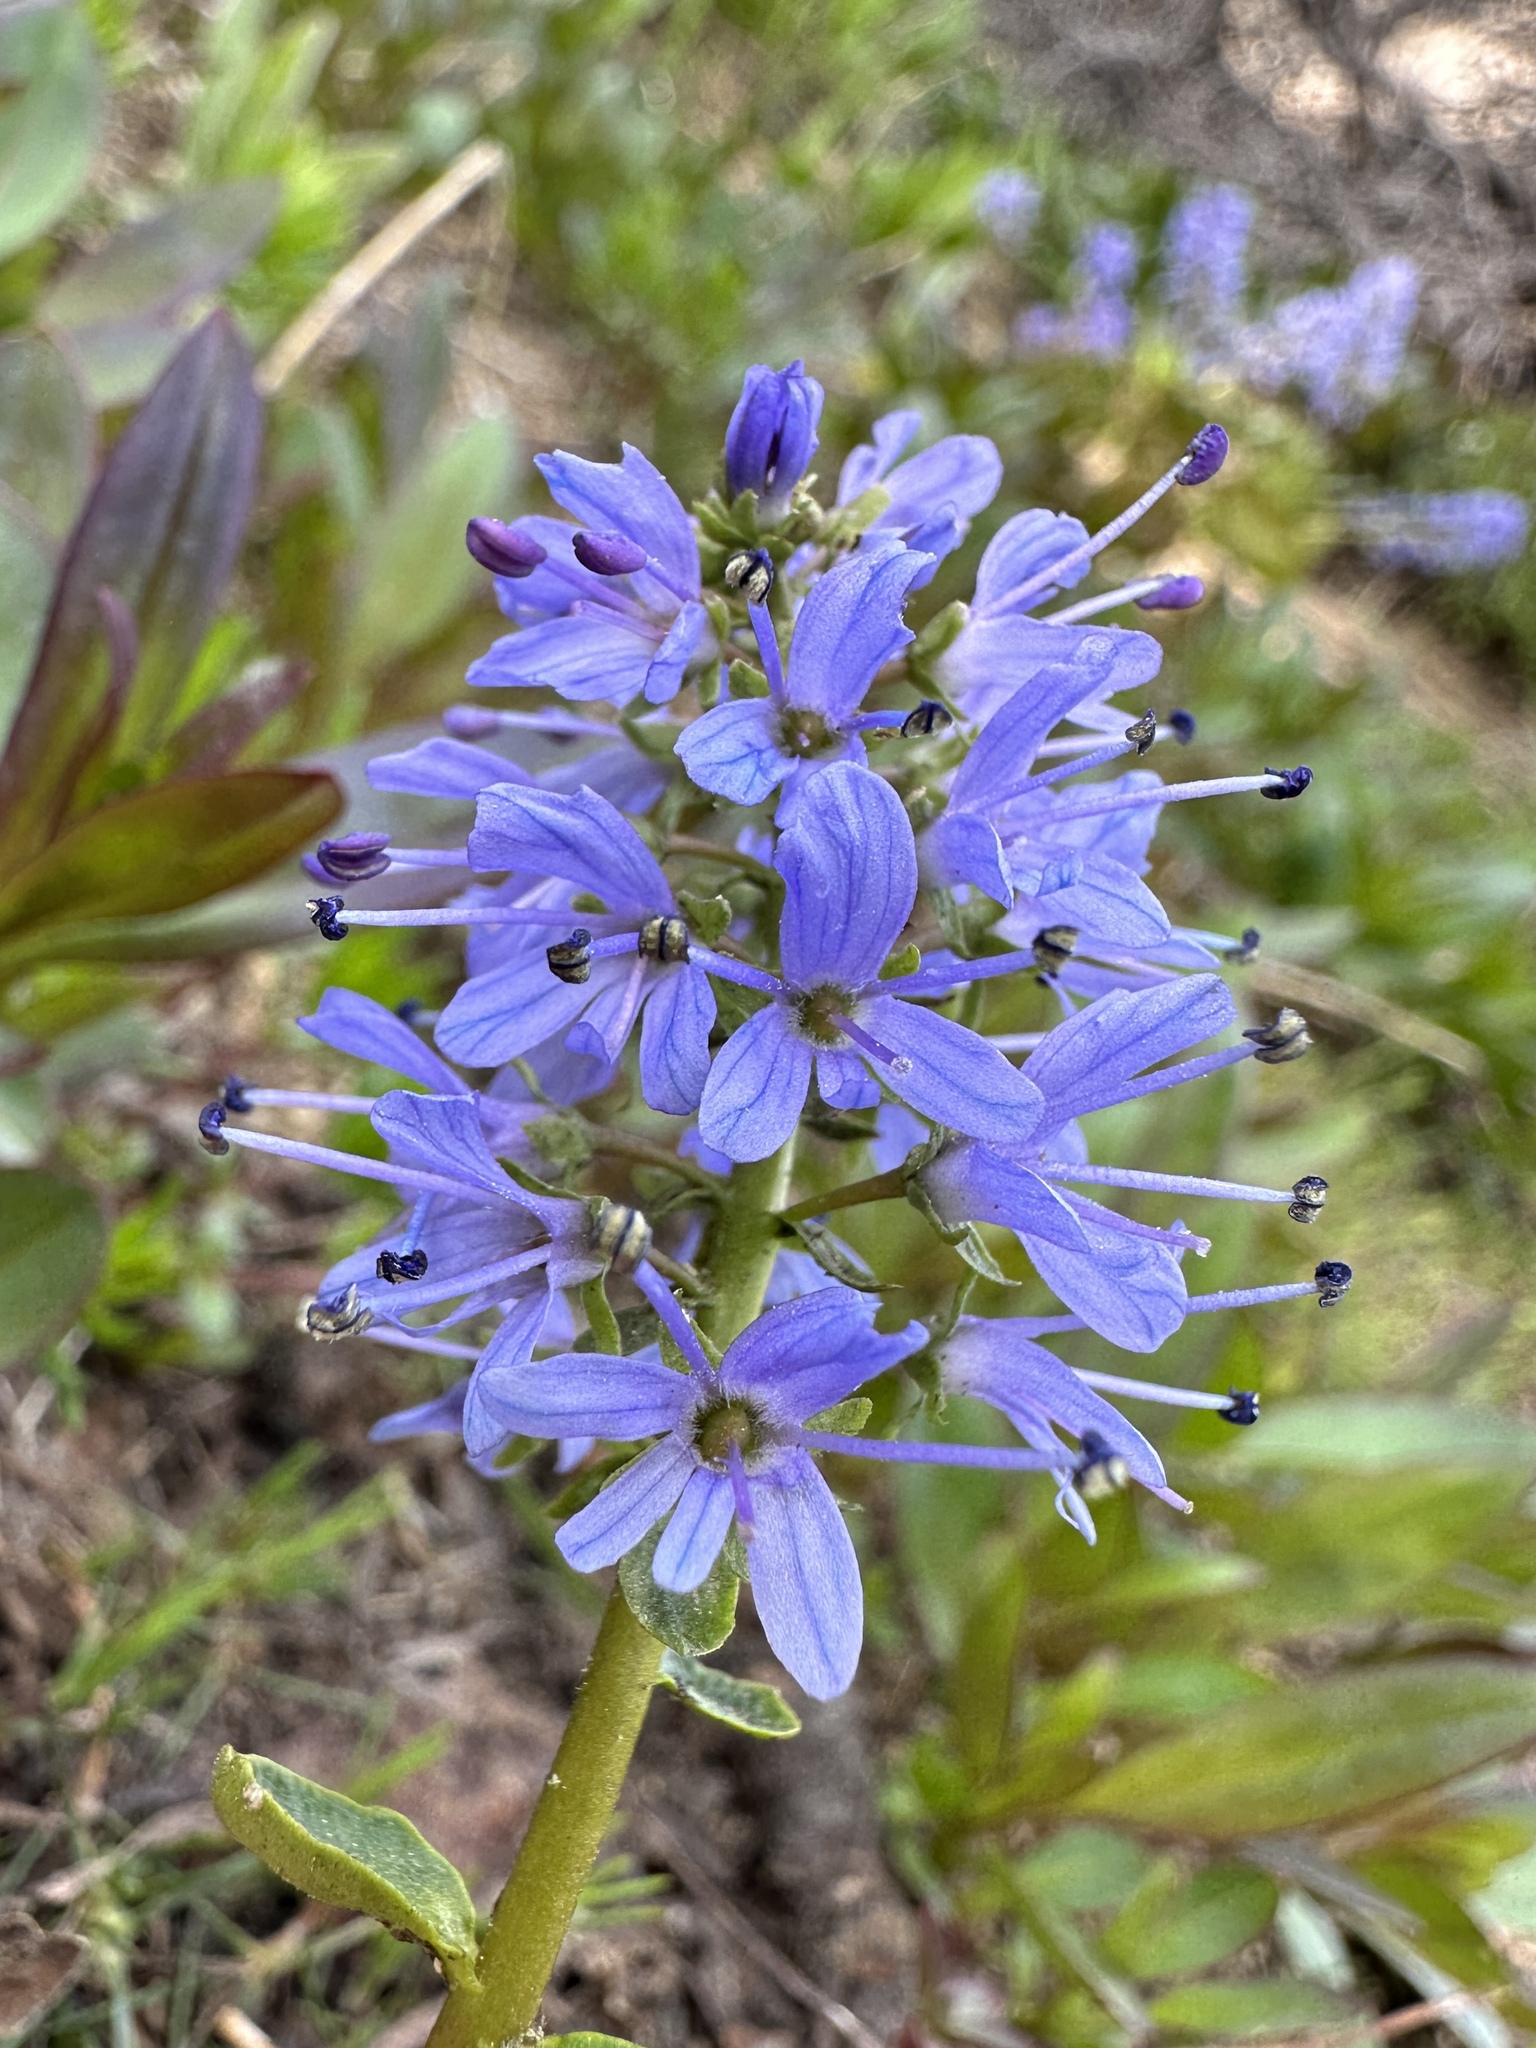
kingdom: Plantae
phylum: Tracheophyta
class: Magnoliopsida
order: Lamiales
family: Plantaginaceae
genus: Synthyris
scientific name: Synthyris missurica
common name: Kitten-tails
